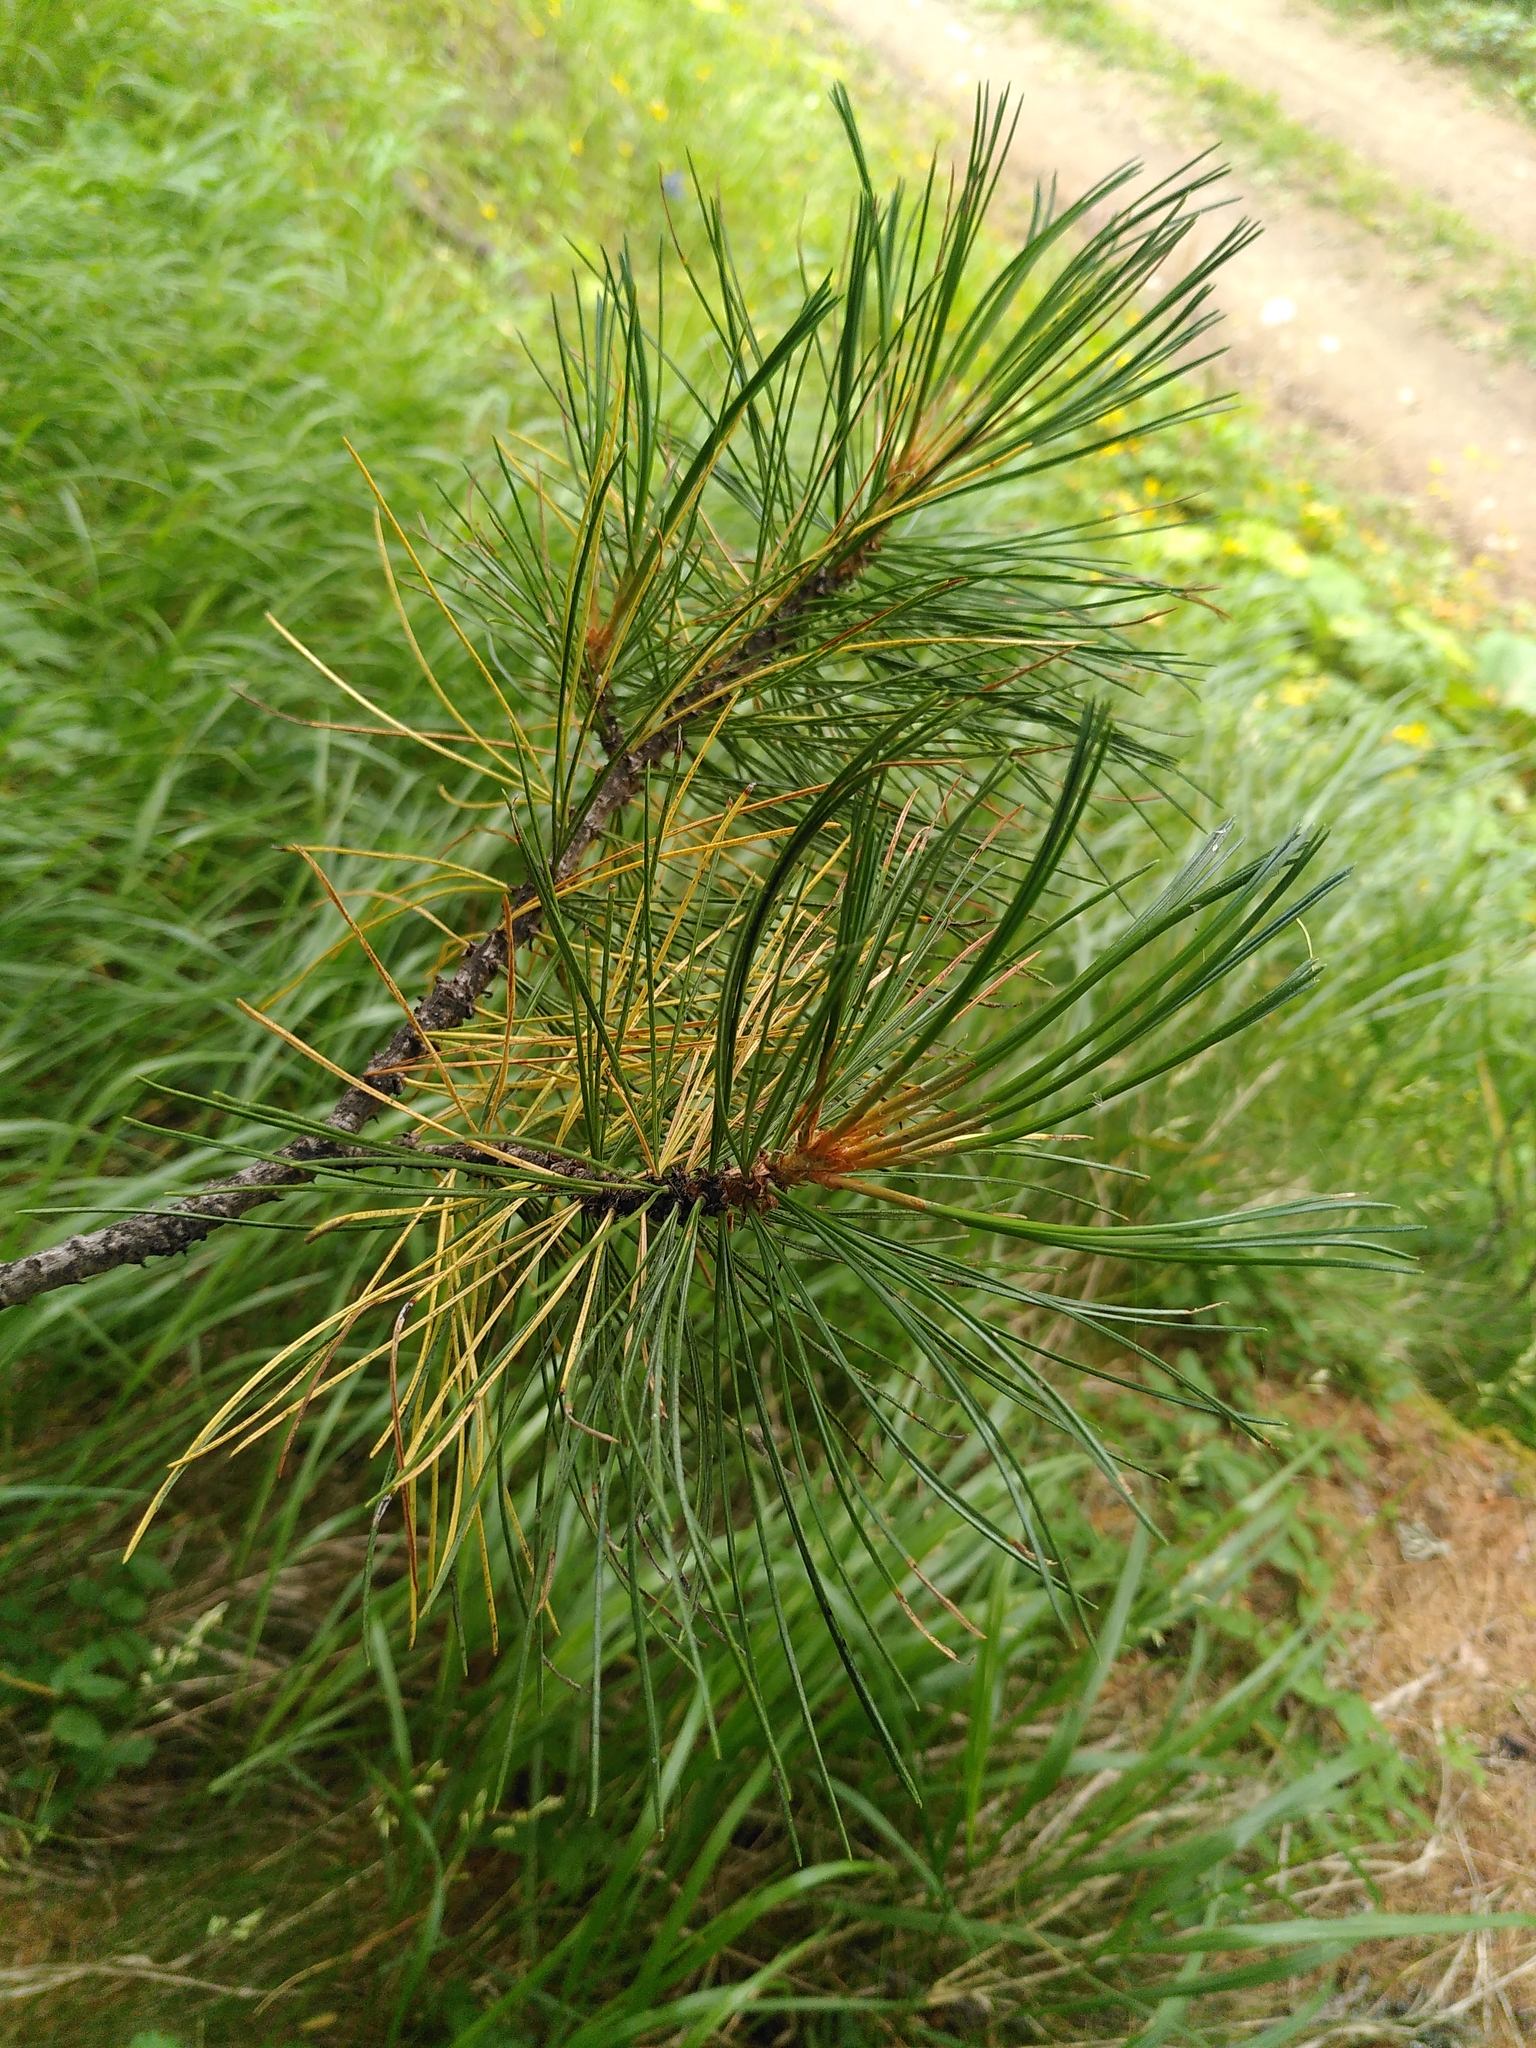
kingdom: Plantae
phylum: Tracheophyta
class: Pinopsida
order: Pinales
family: Pinaceae
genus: Pinus
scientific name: Pinus cembra
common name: Arolla pine
